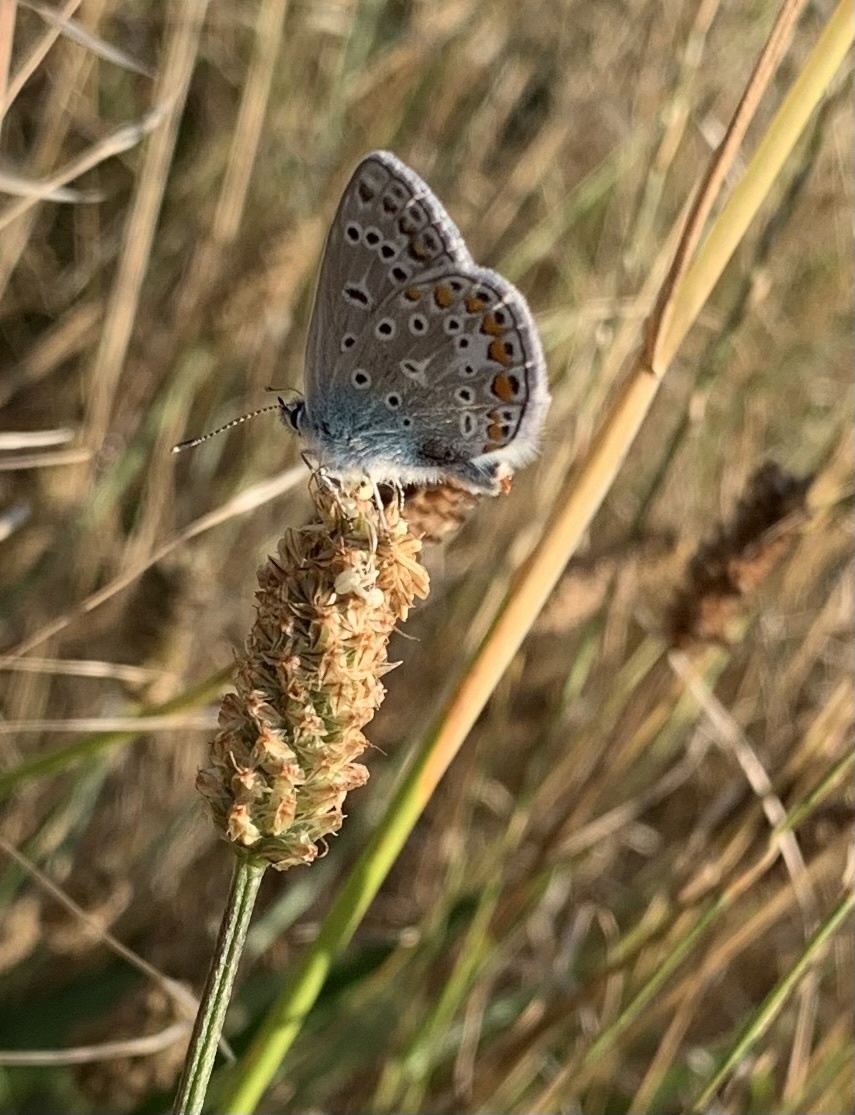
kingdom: Animalia
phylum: Arthropoda
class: Insecta
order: Lepidoptera
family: Lycaenidae
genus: Polyommatus
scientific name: Polyommatus icarus
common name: Common blue
